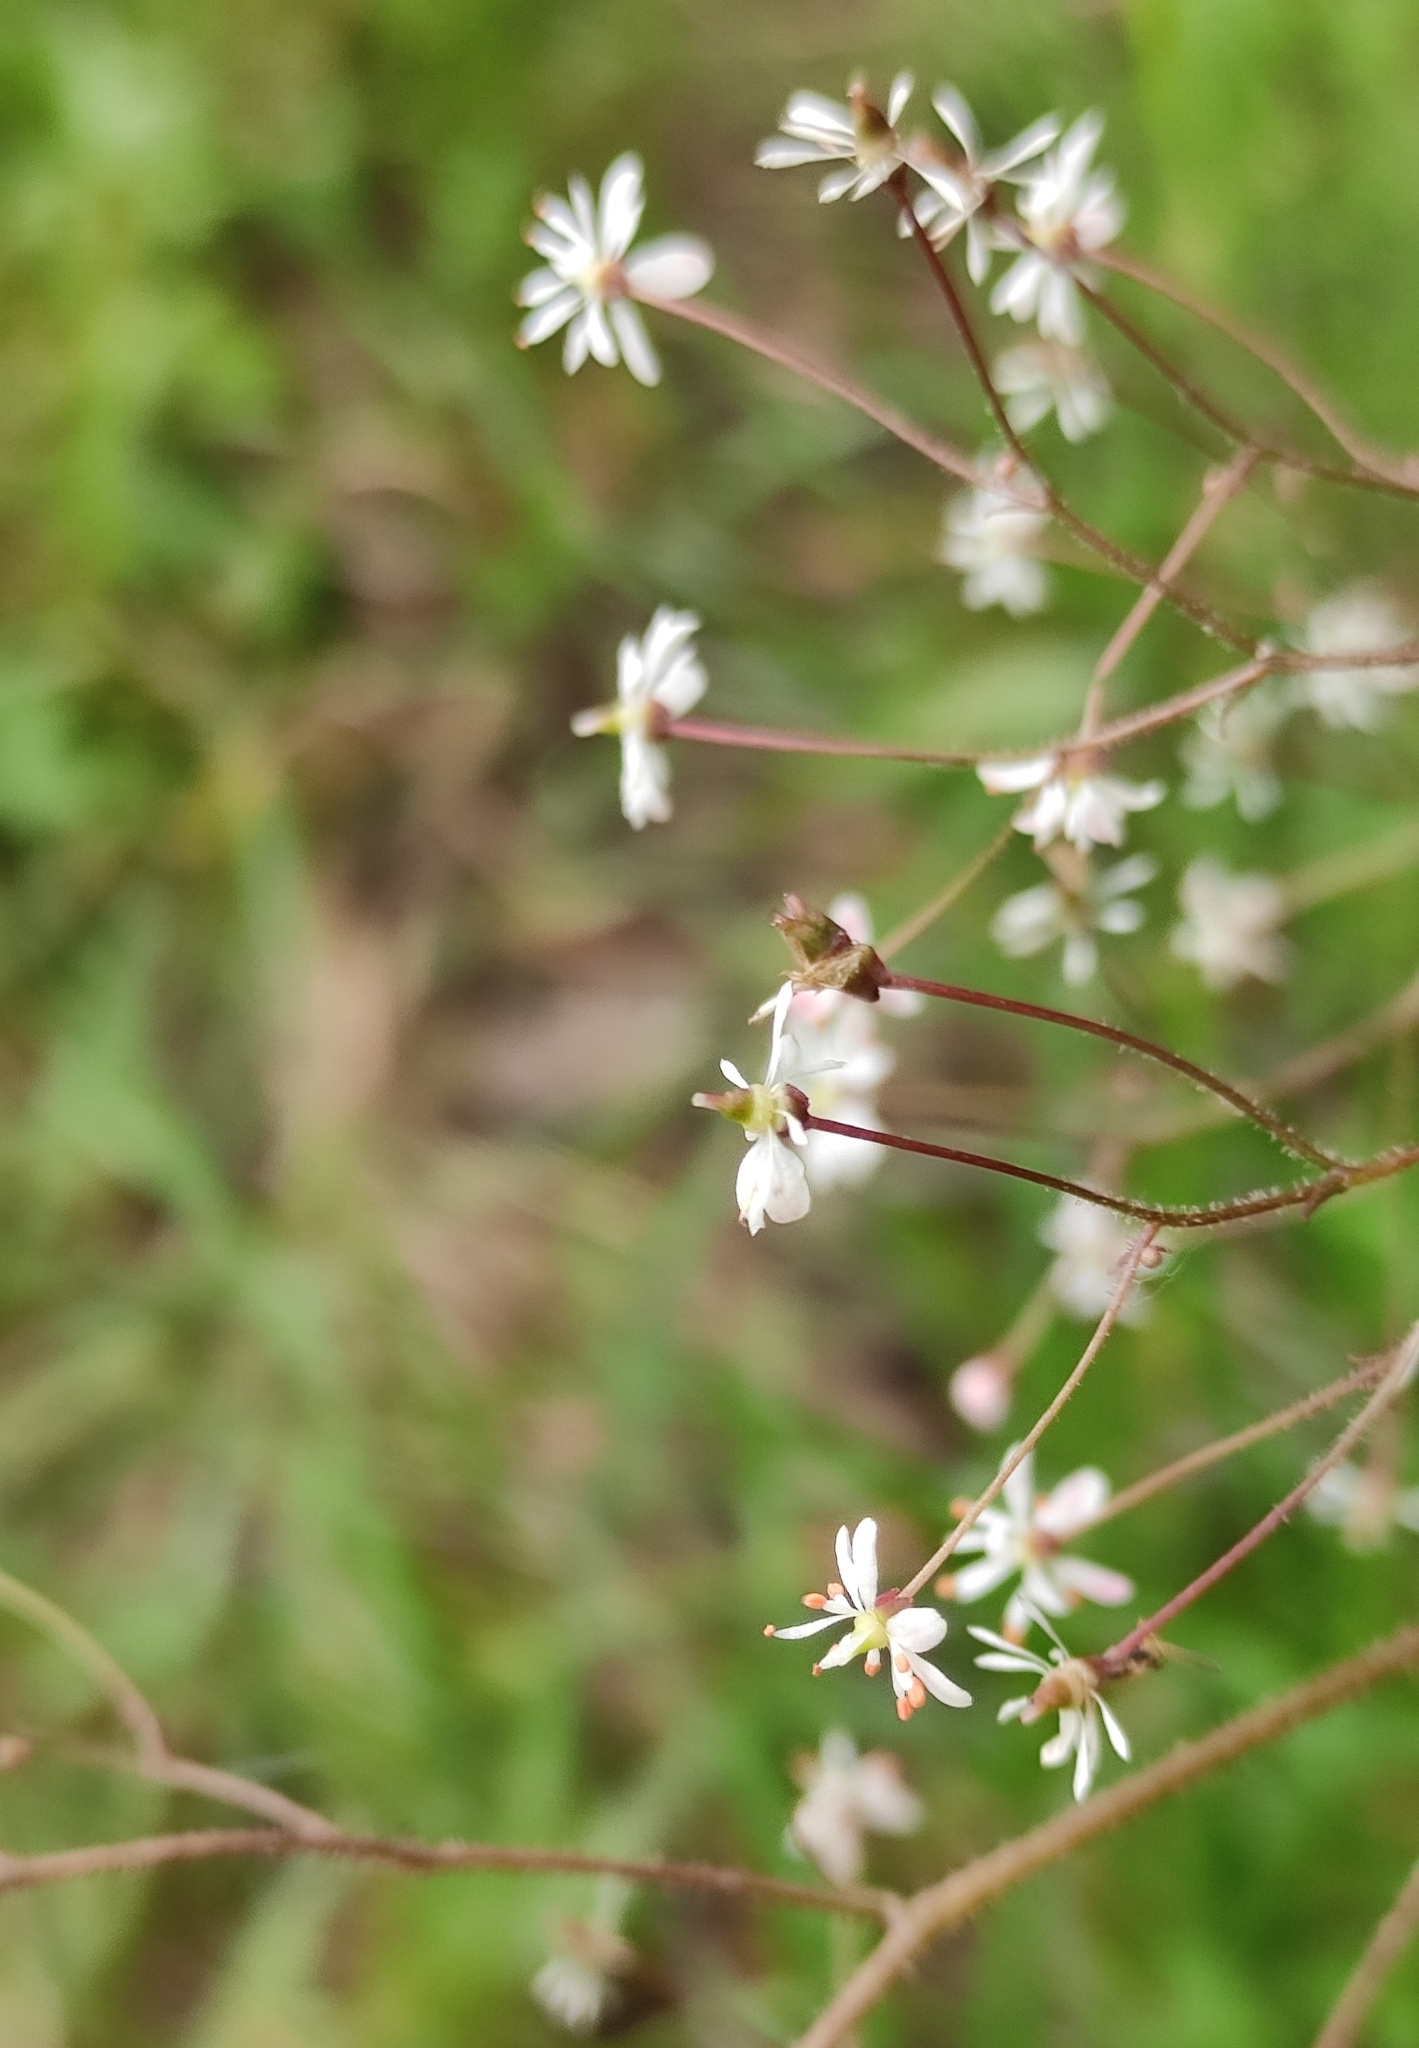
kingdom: Plantae
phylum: Tracheophyta
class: Magnoliopsida
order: Saxifragales
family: Saxifragaceae
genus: Micranthes
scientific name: Micranthes nelsoniana
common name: Nelson's saxifrage
